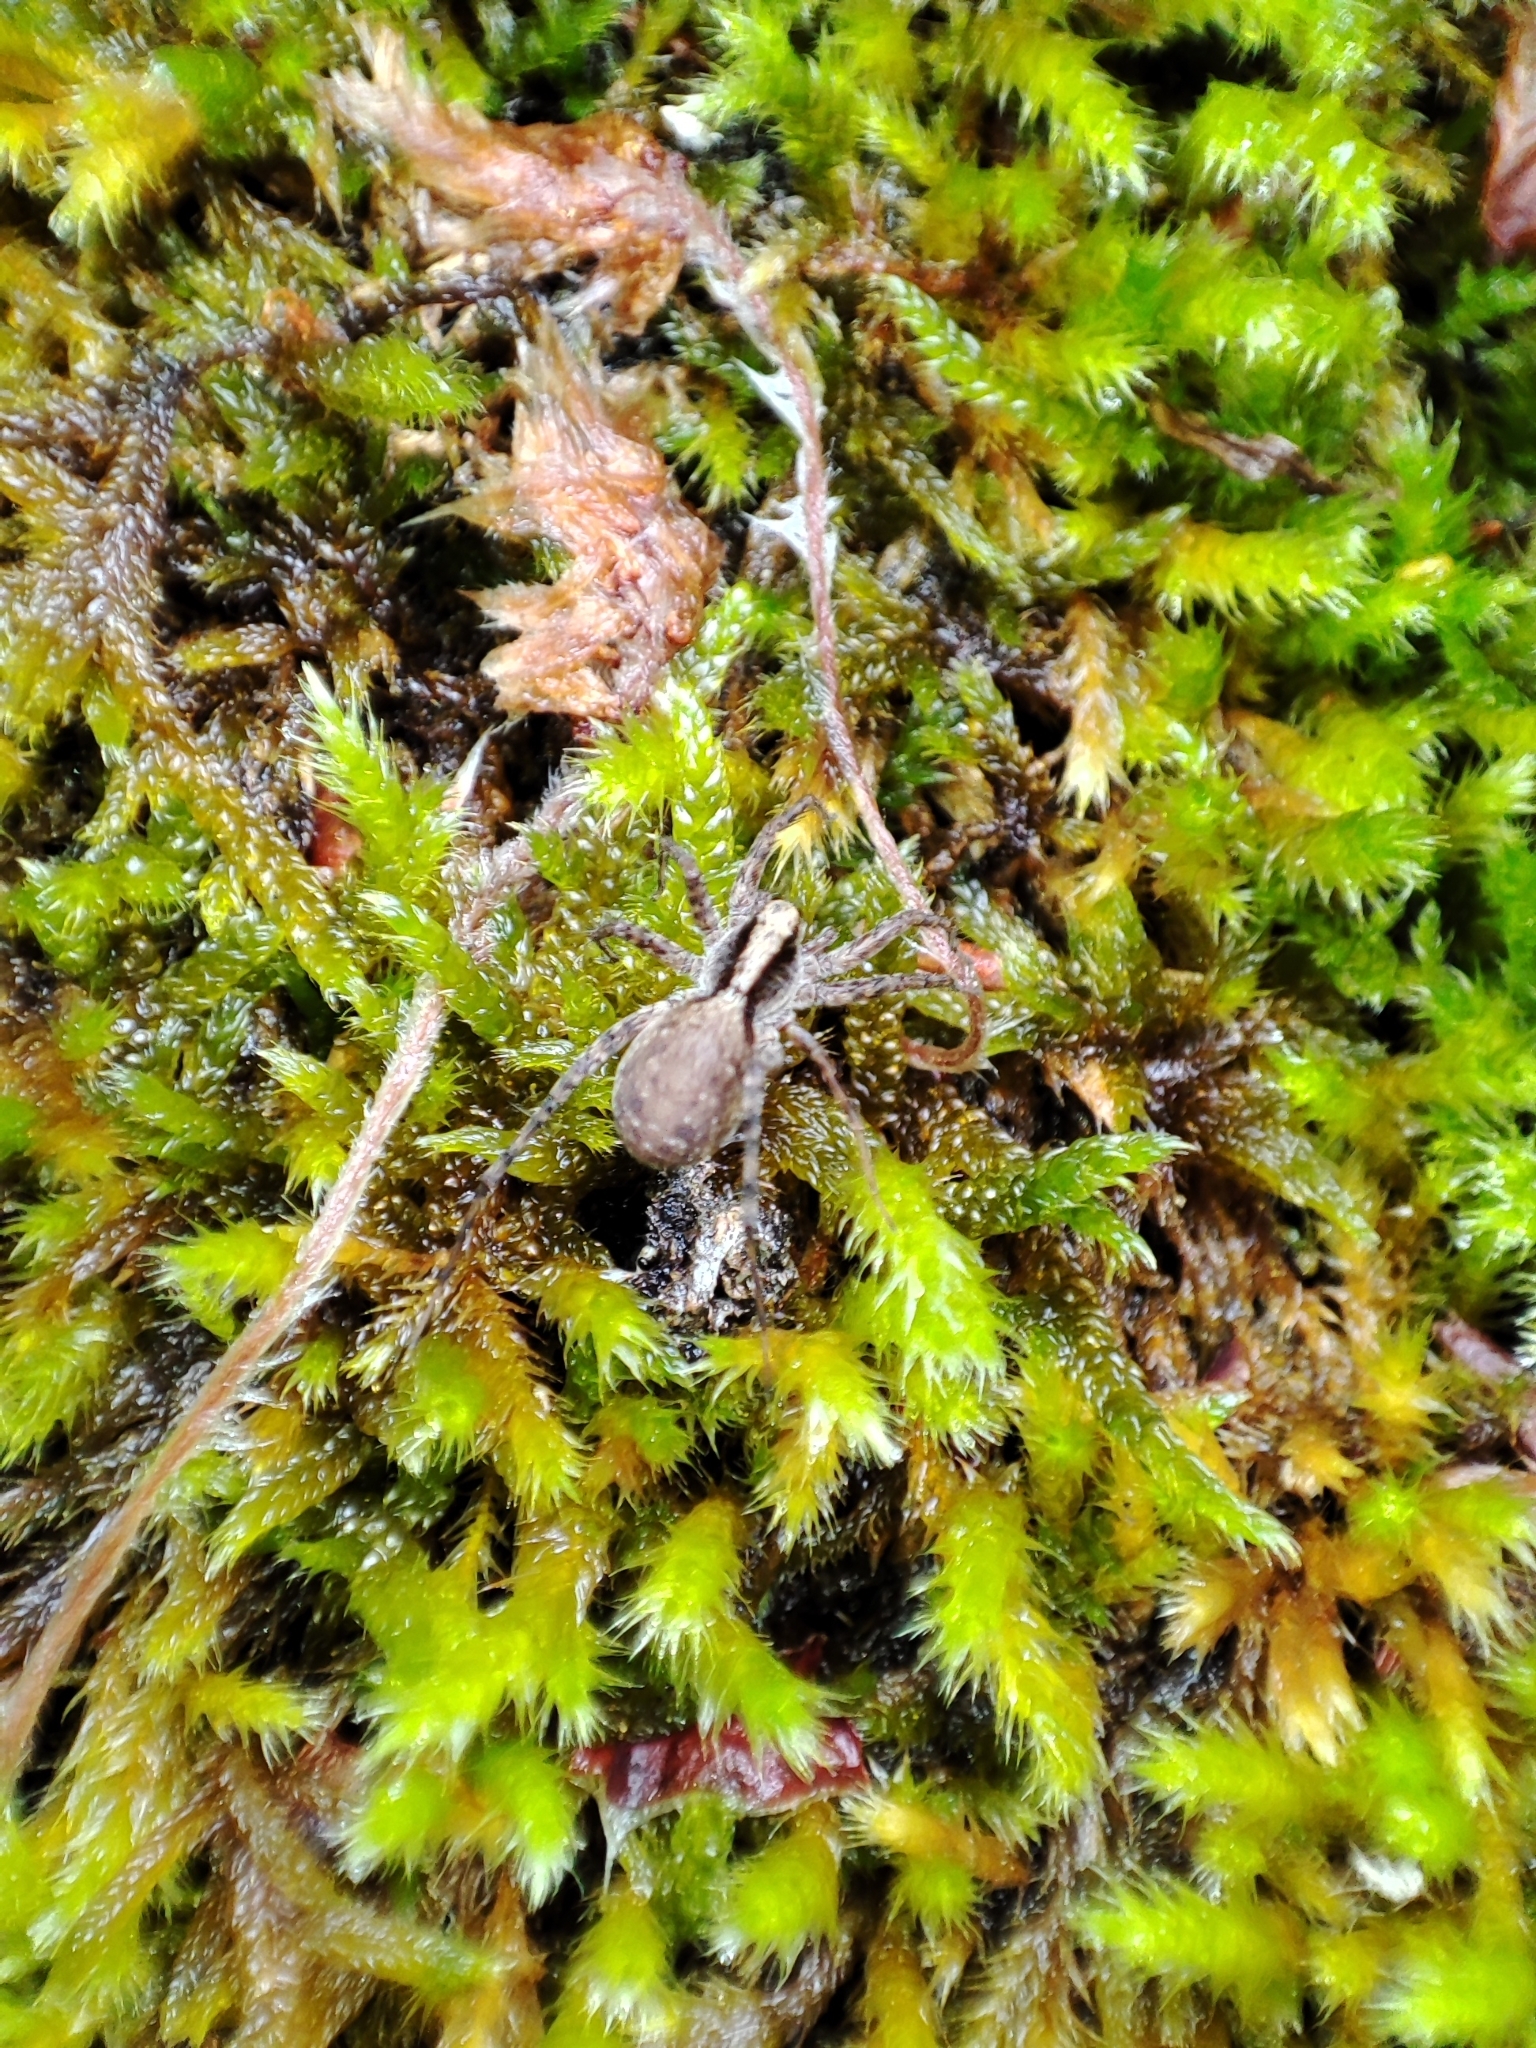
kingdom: Animalia
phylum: Arthropoda
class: Arachnida
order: Araneae
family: Lycosidae
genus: Pardosa
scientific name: Pardosa
